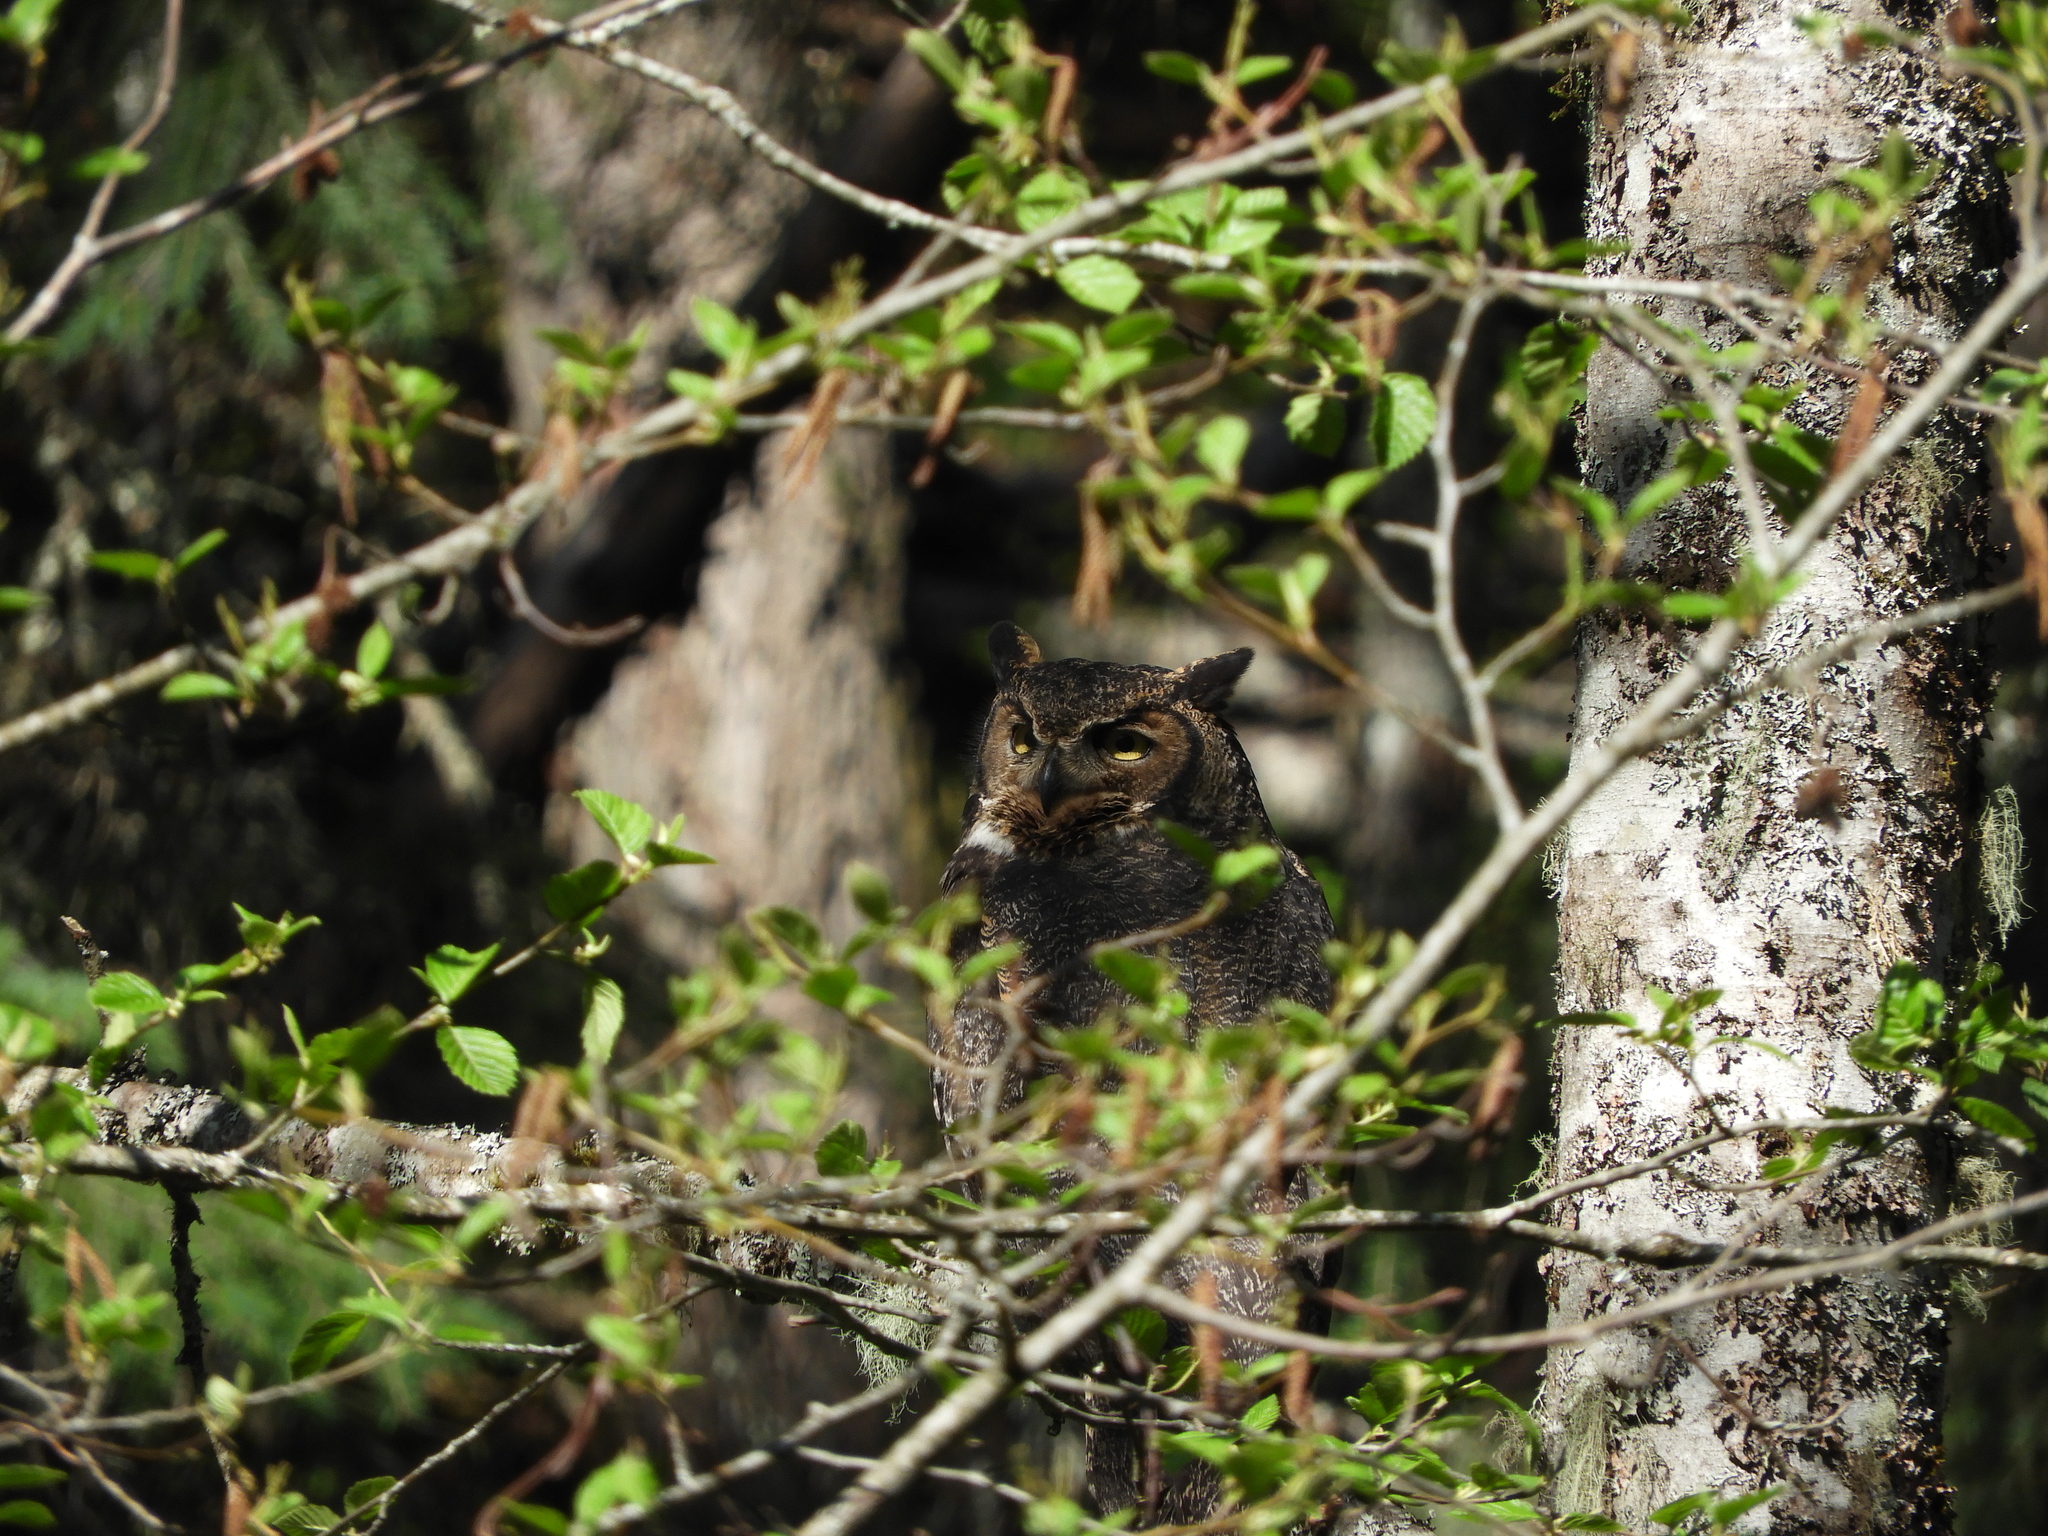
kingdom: Animalia
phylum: Chordata
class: Aves
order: Strigiformes
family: Strigidae
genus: Bubo
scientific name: Bubo virginianus
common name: Great horned owl
